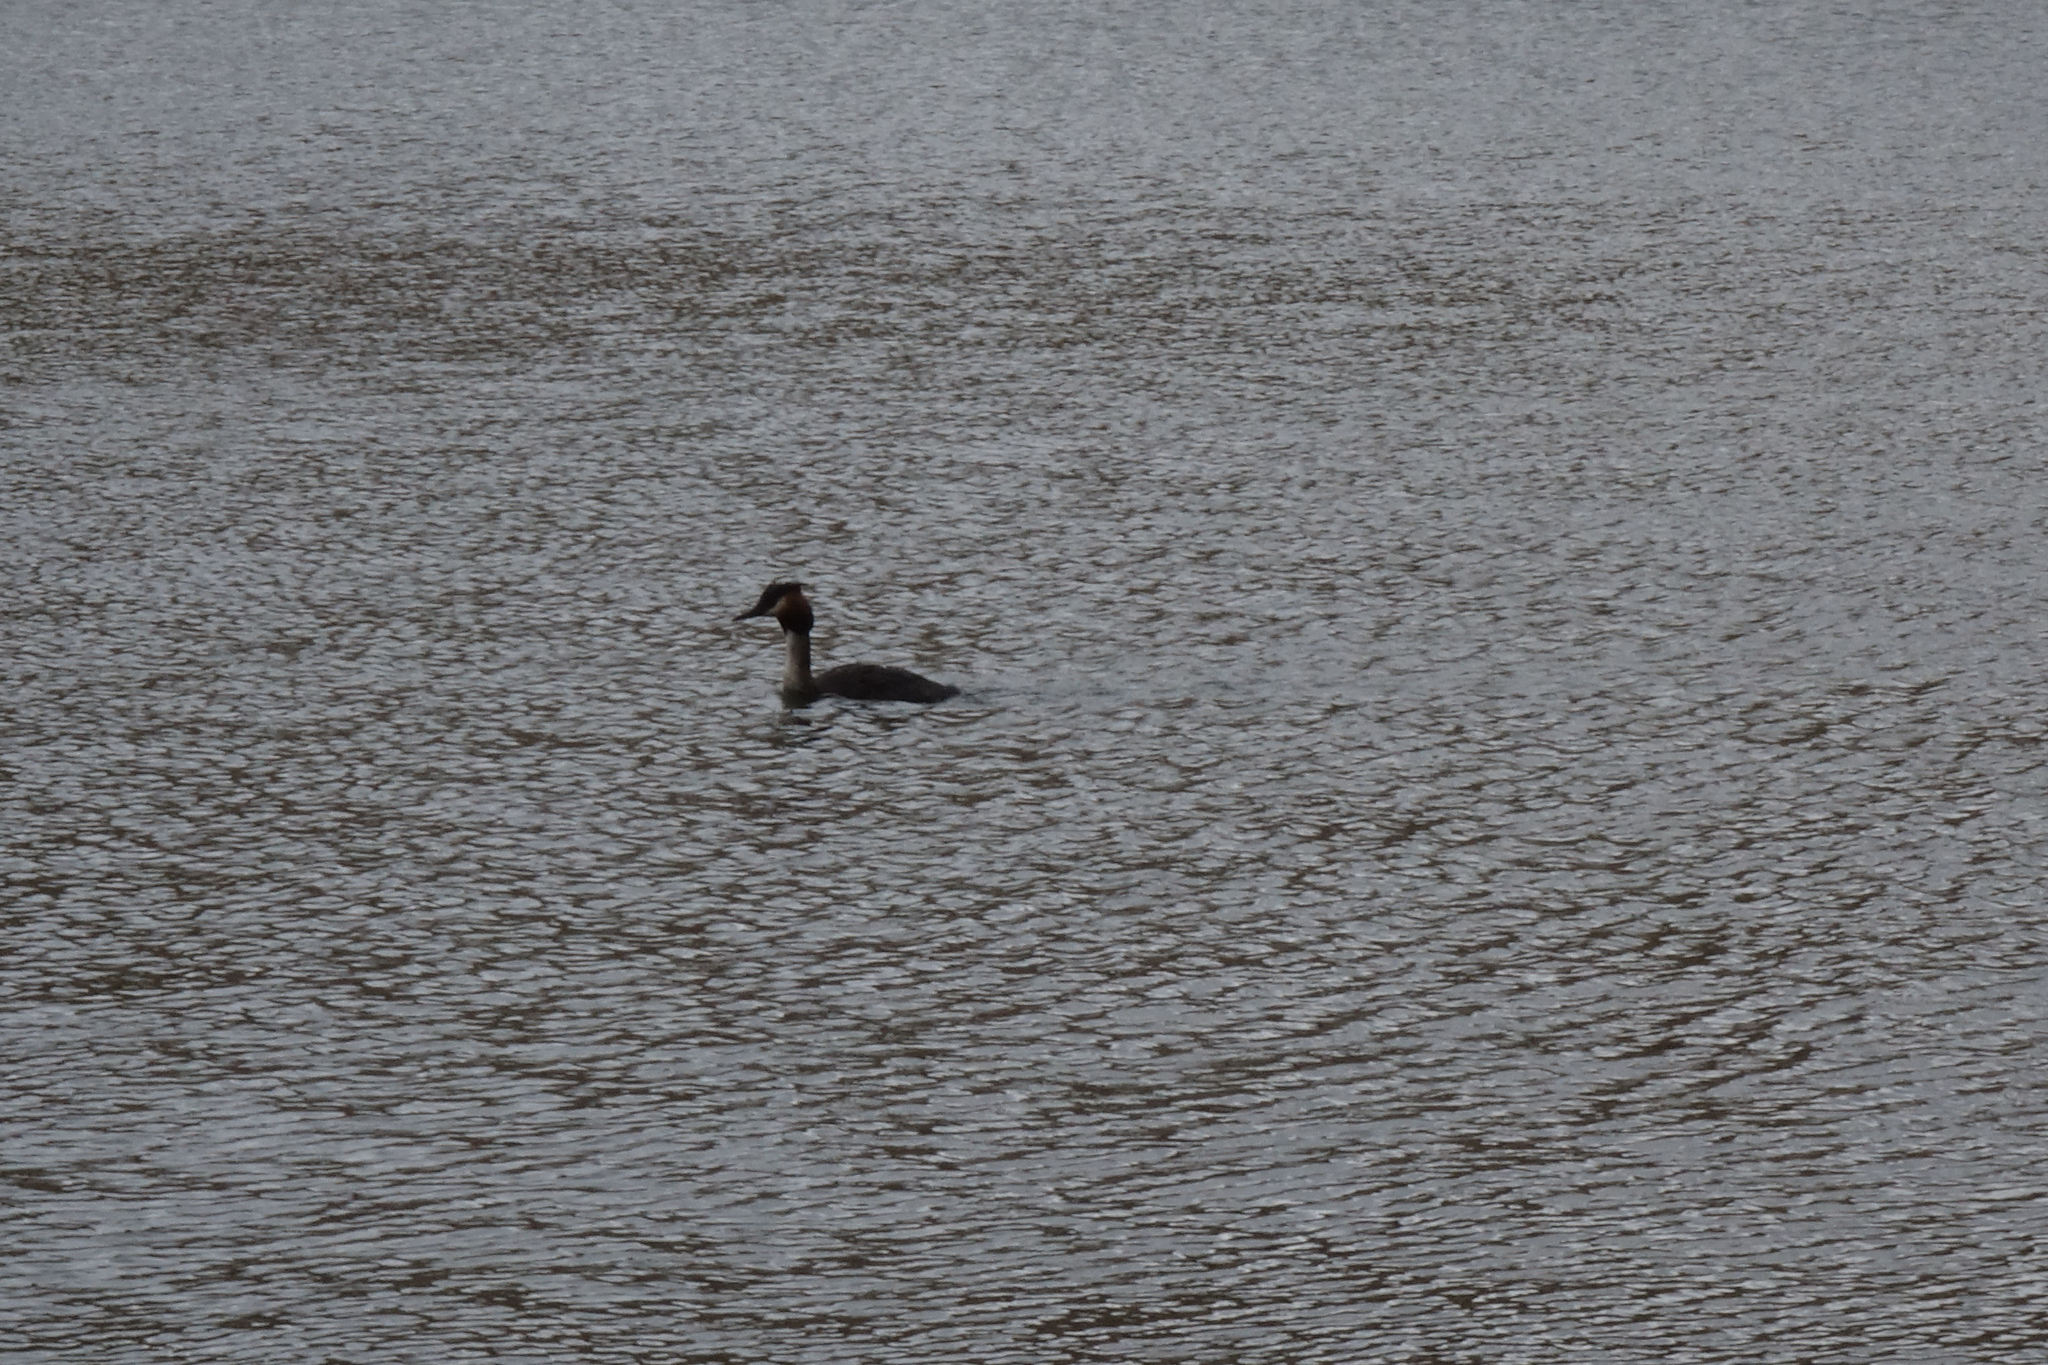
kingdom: Animalia
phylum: Chordata
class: Aves
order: Podicipediformes
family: Podicipedidae
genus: Podiceps
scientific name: Podiceps cristatus
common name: Great crested grebe
